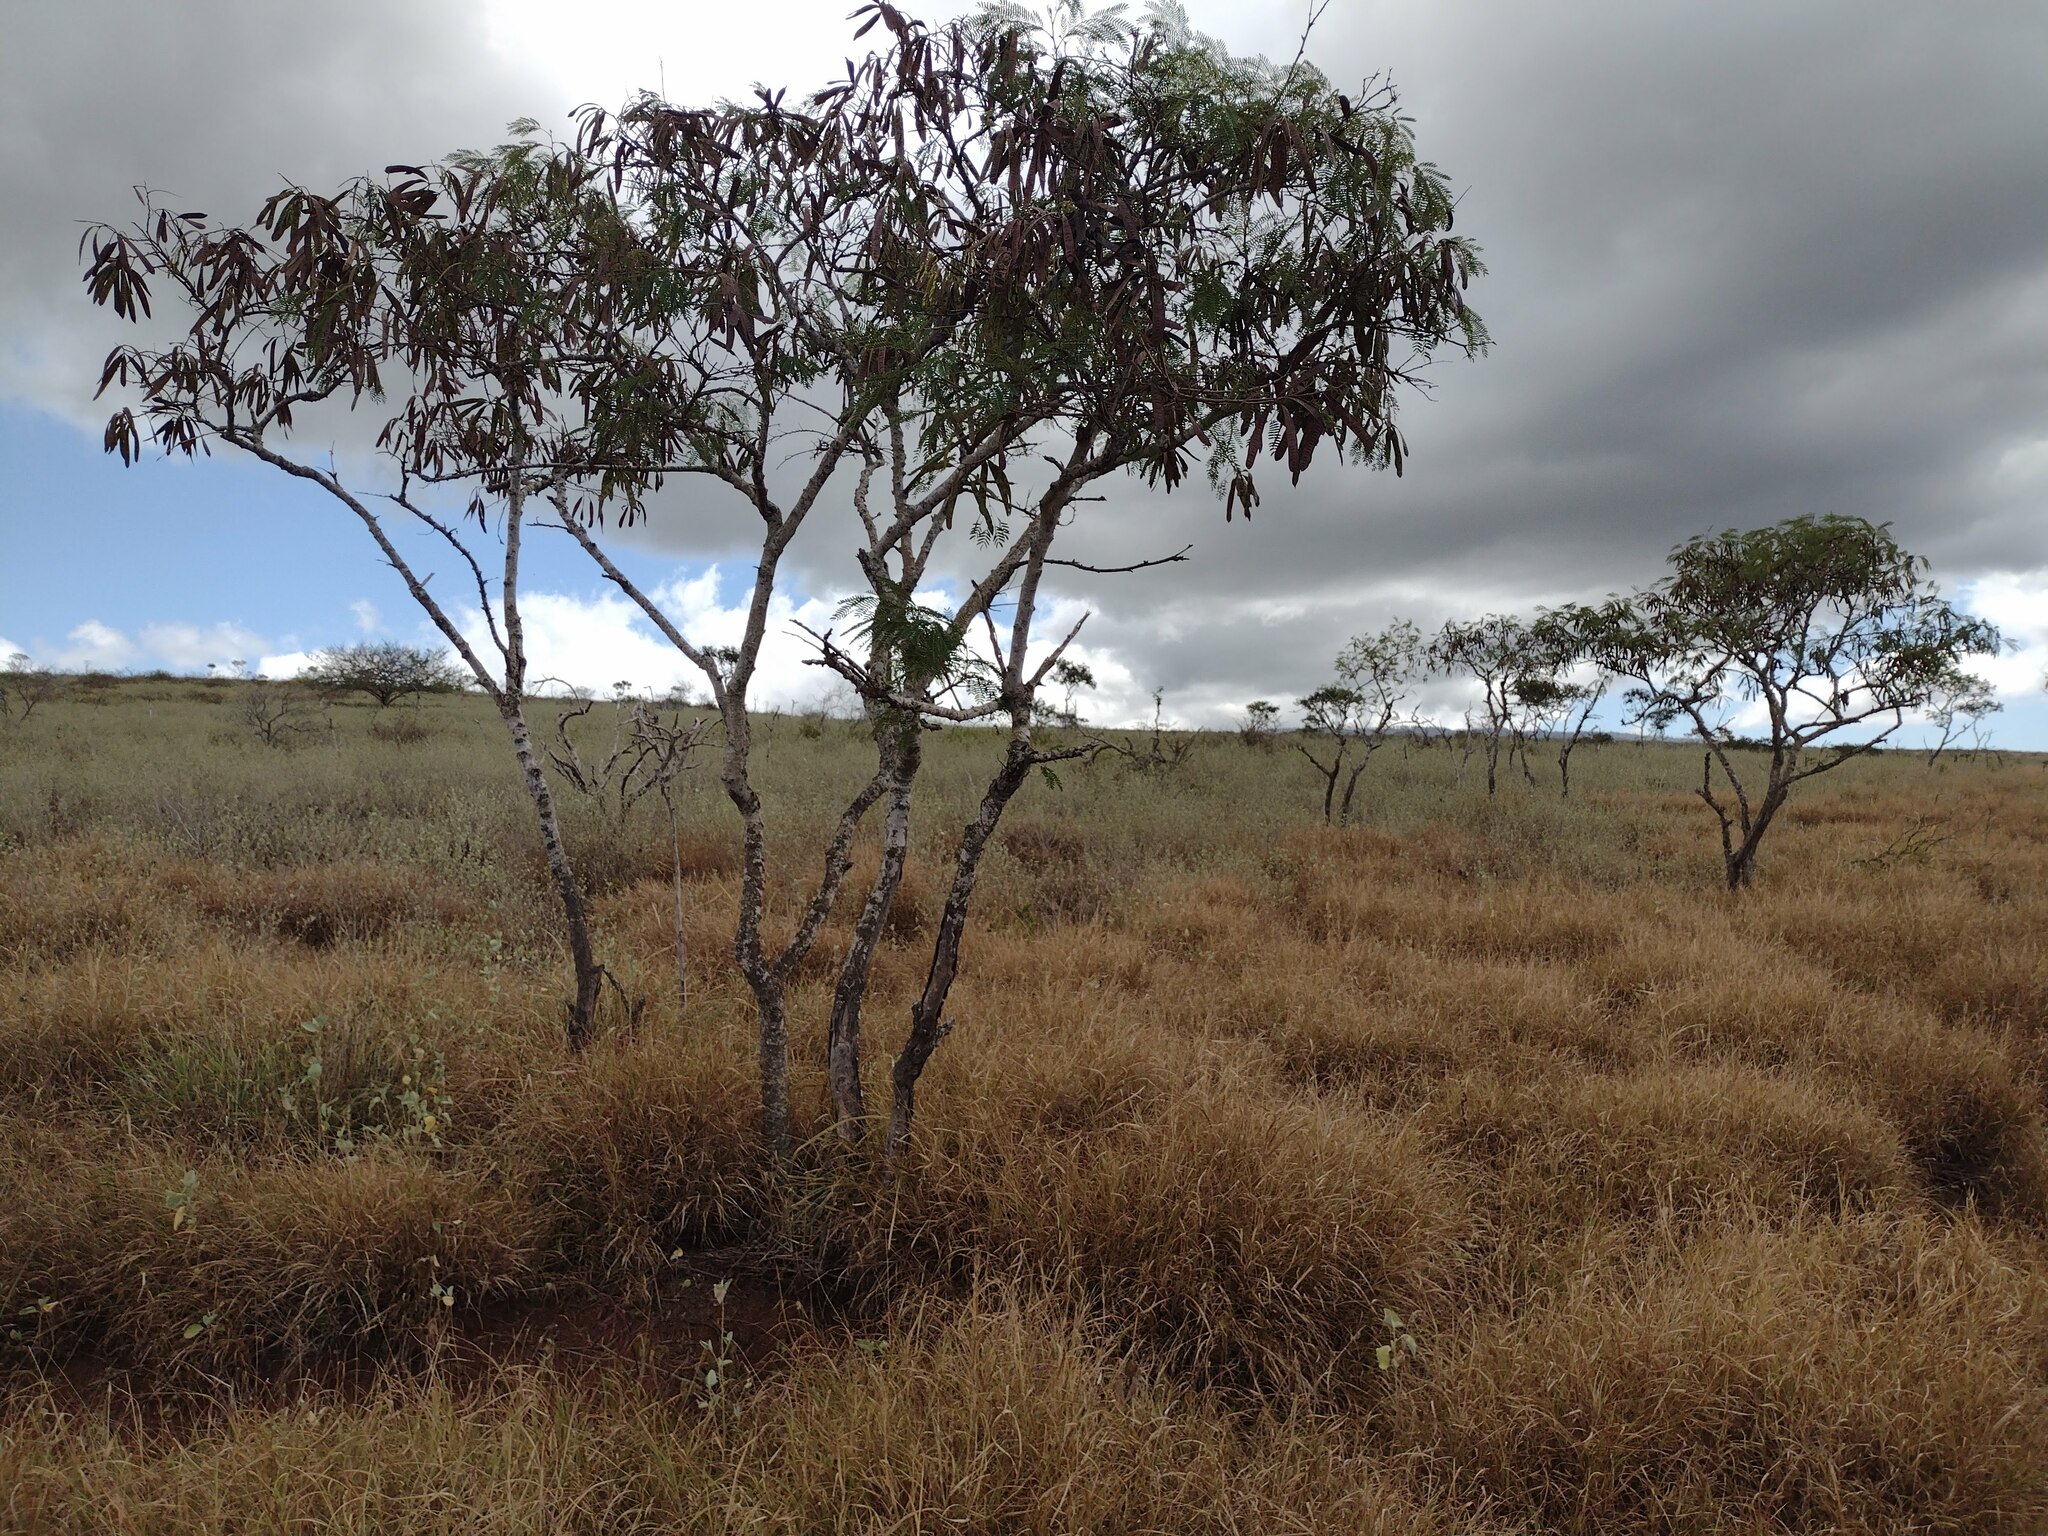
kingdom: Plantae
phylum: Tracheophyta
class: Magnoliopsida
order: Fabales
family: Fabaceae
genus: Leucaena
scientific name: Leucaena leucocephala
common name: White leadtree
